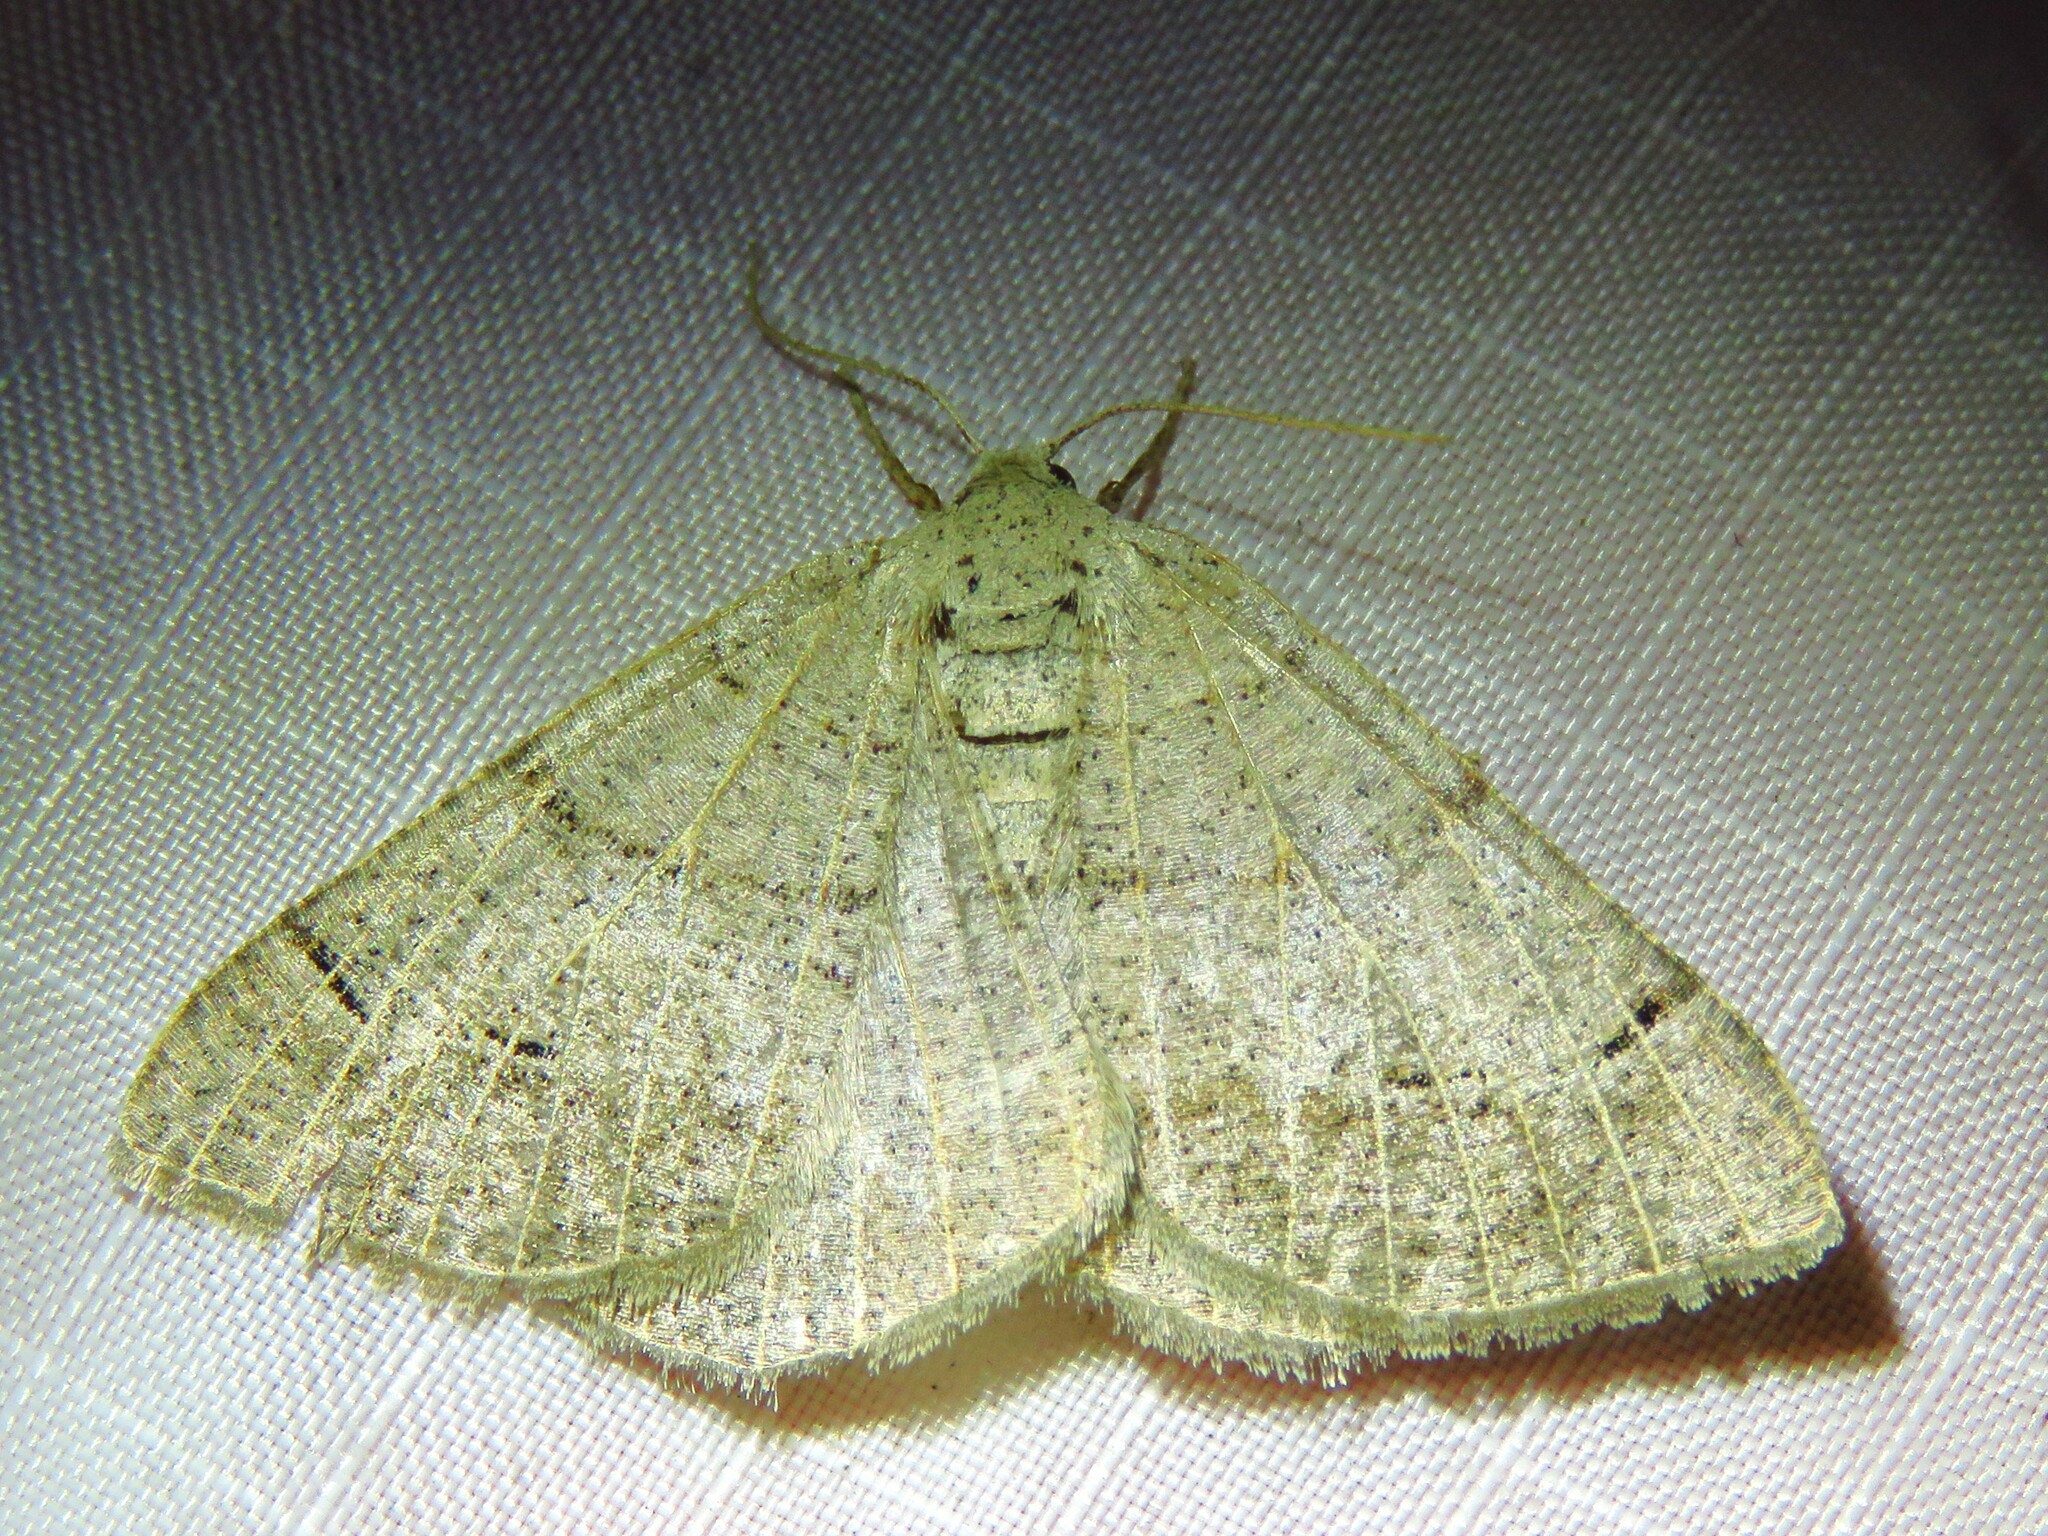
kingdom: Animalia
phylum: Arthropoda
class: Insecta
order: Lepidoptera
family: Geometridae
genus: Isturgia
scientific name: Isturgia dislocaria
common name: Pale-viened enconista
